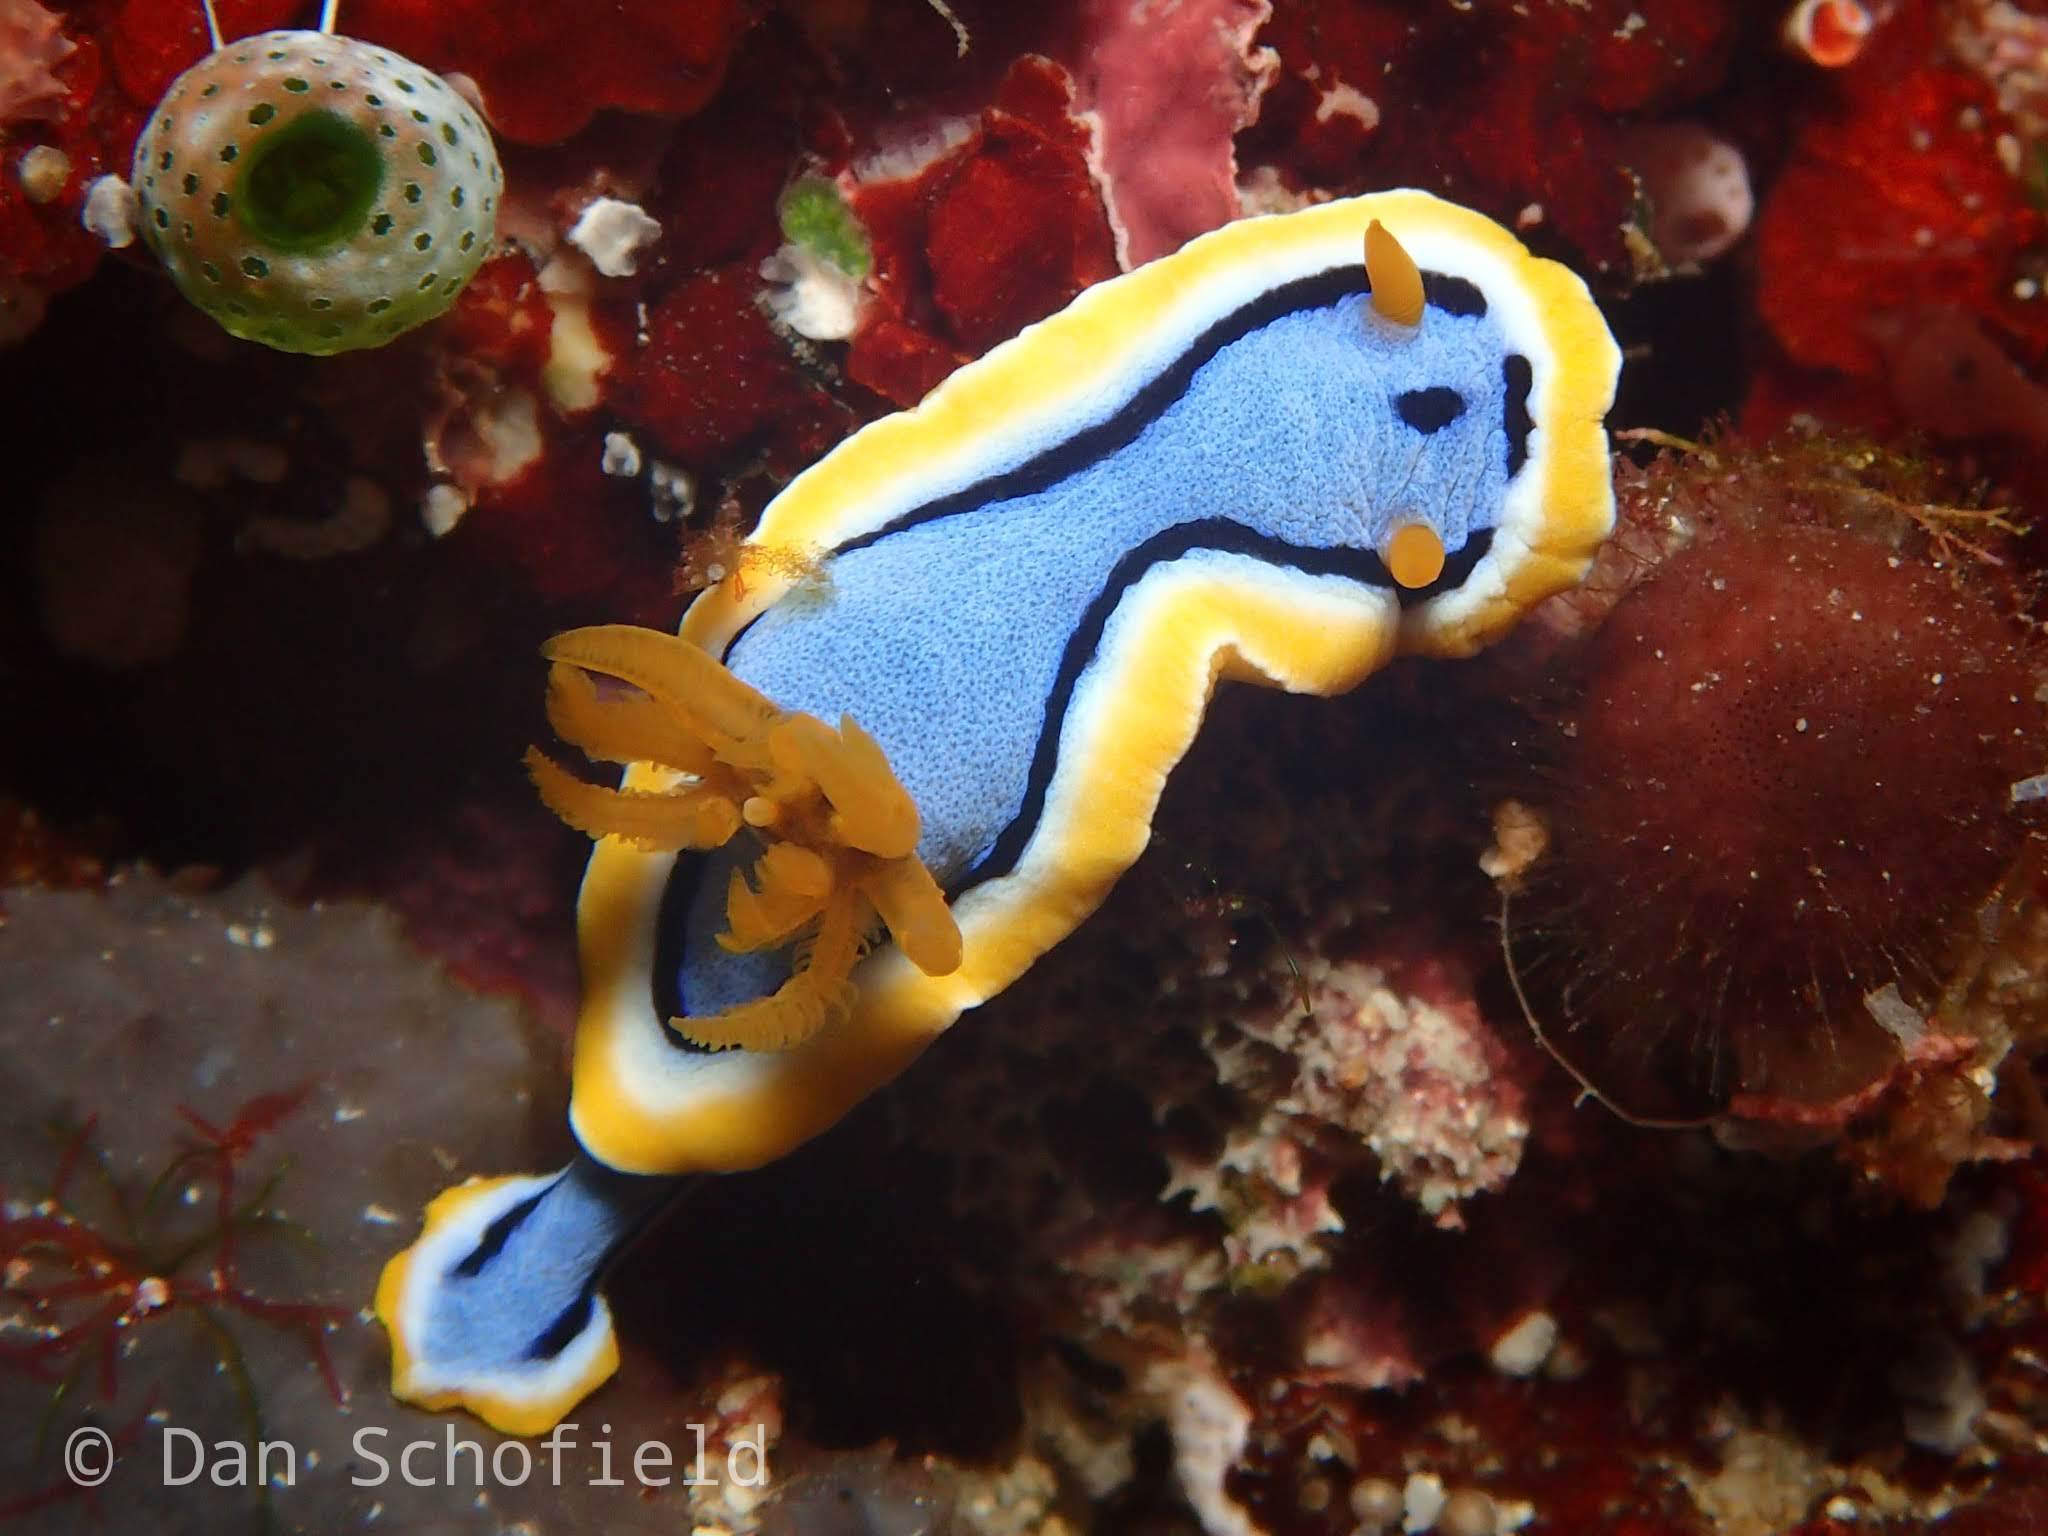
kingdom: Animalia
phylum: Mollusca
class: Gastropoda
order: Nudibranchia
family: Chromodorididae
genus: Chromodoris
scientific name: Chromodoris annae
